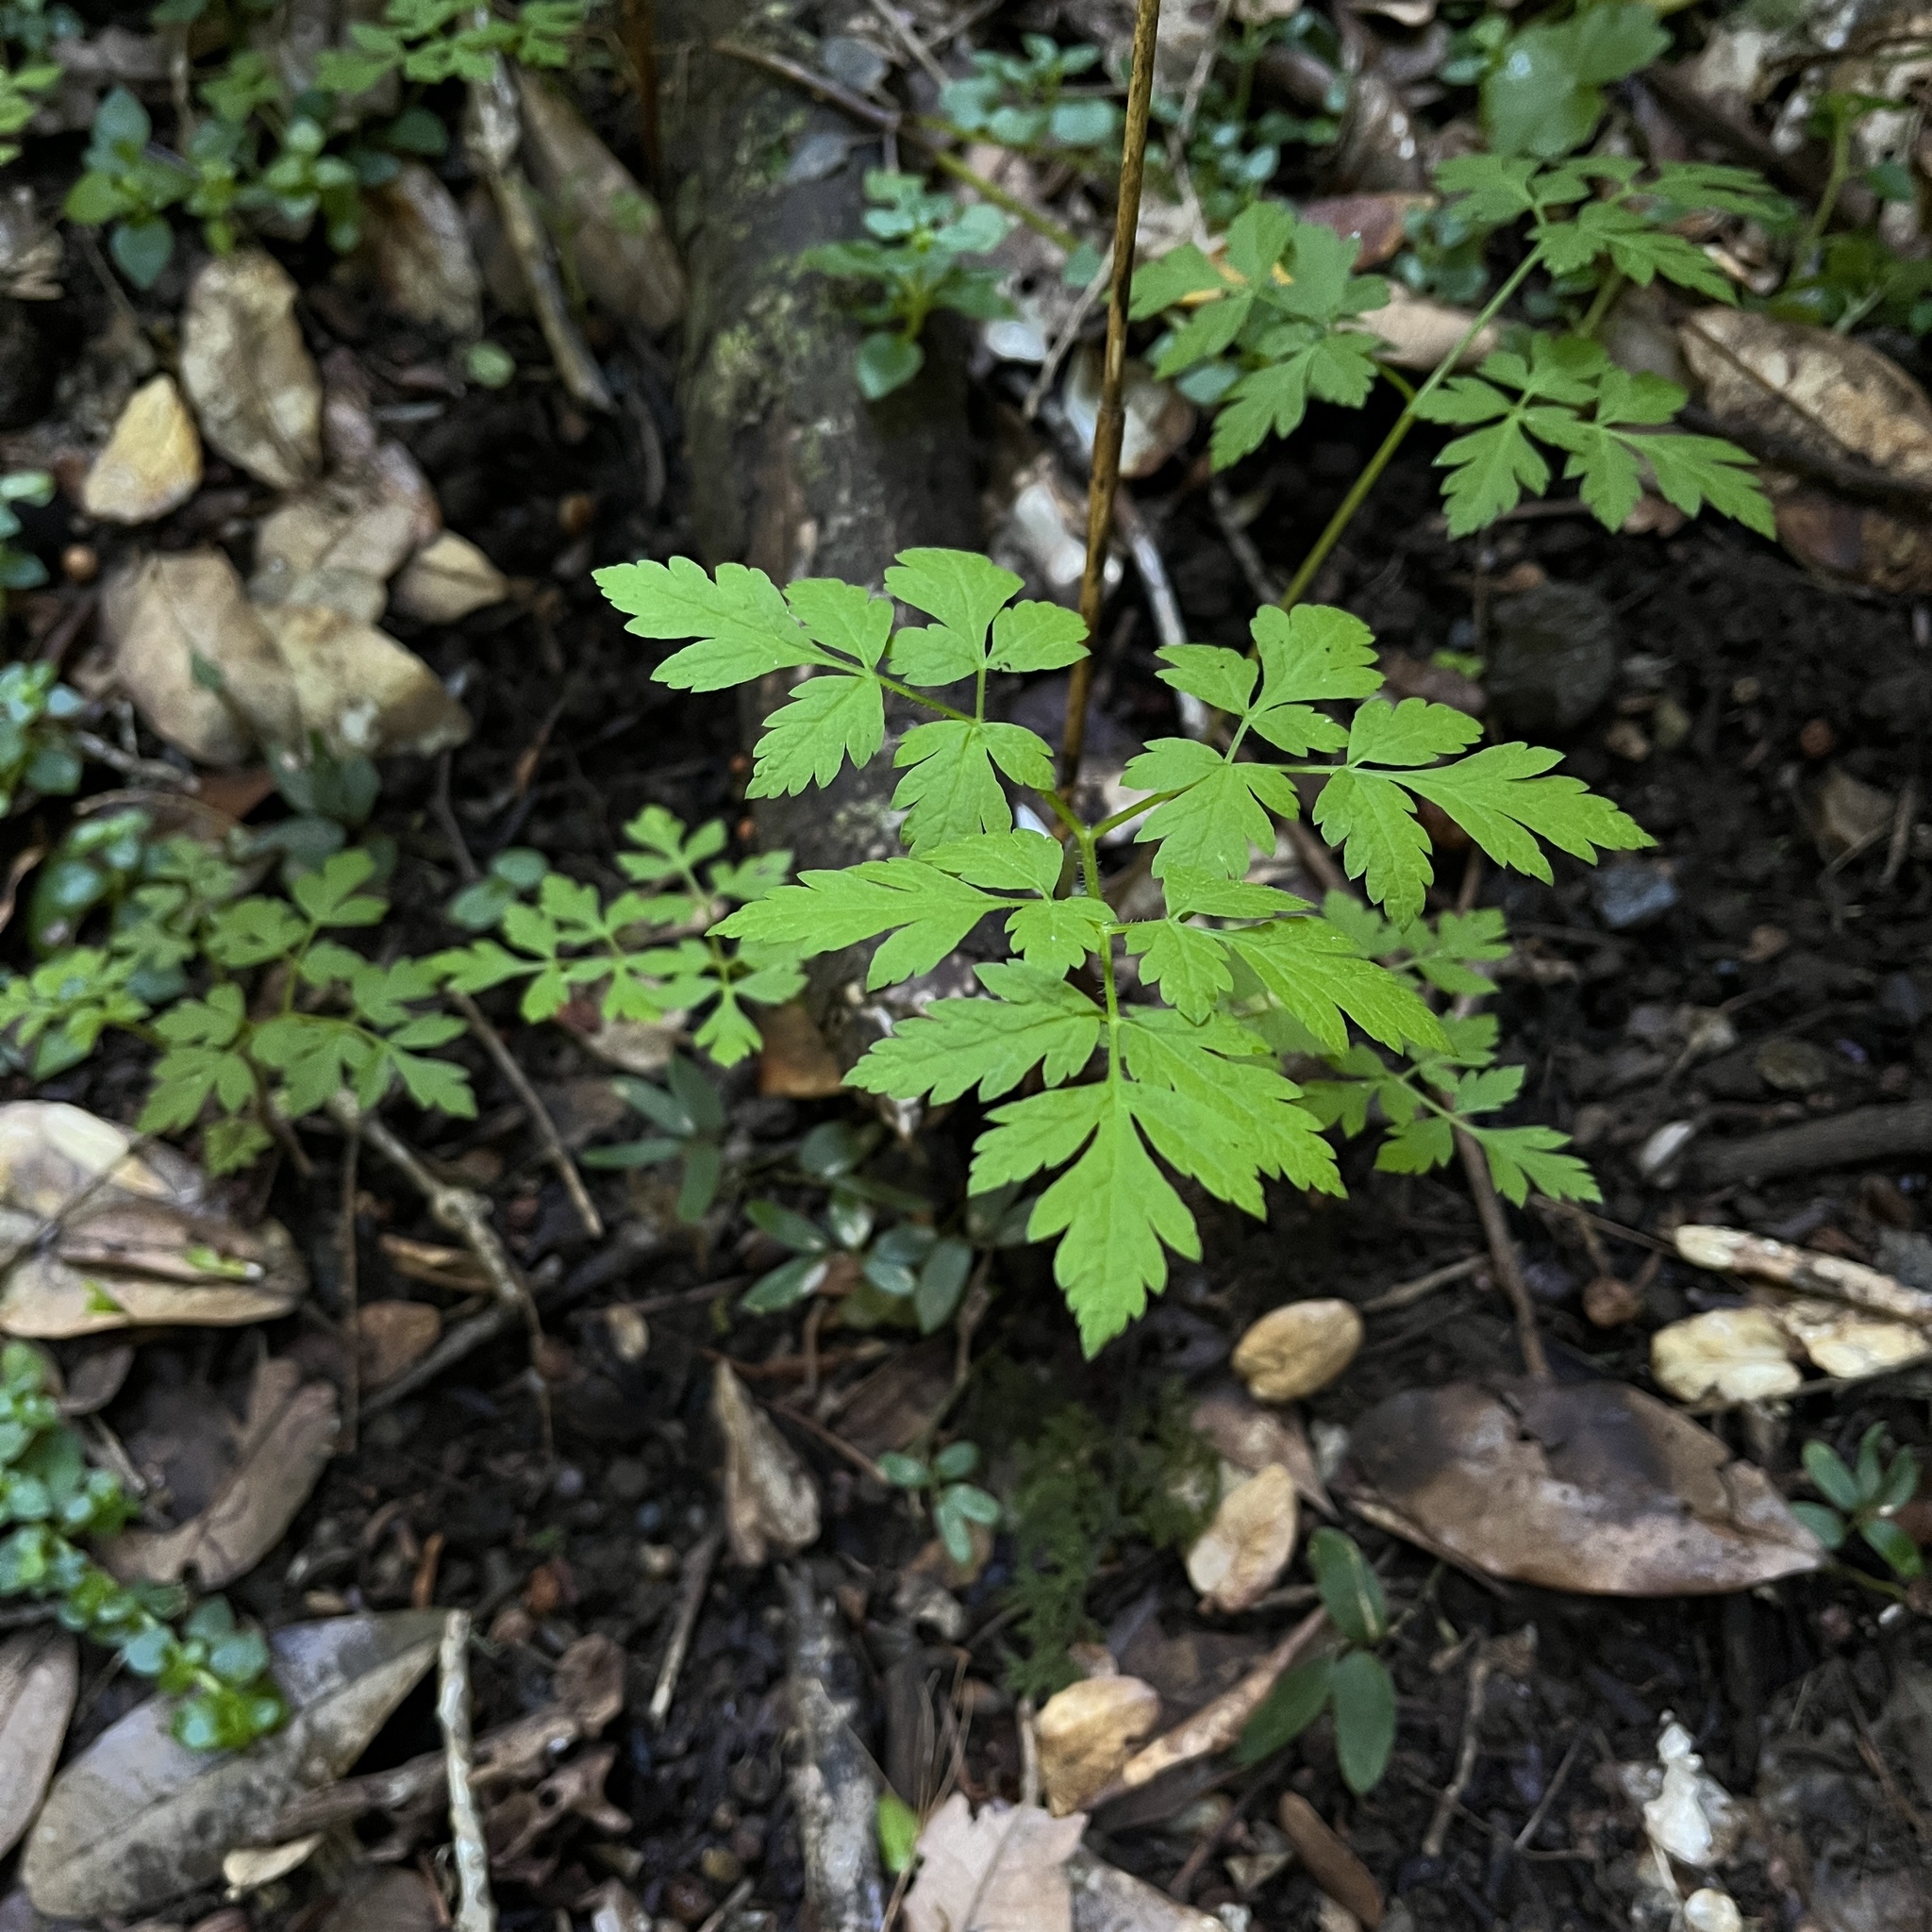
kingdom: Plantae
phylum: Tracheophyta
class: Magnoliopsida
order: Apiales
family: Apiaceae
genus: Osmorhiza
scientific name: Osmorhiza berteroi
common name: Mountain sweet cicely
